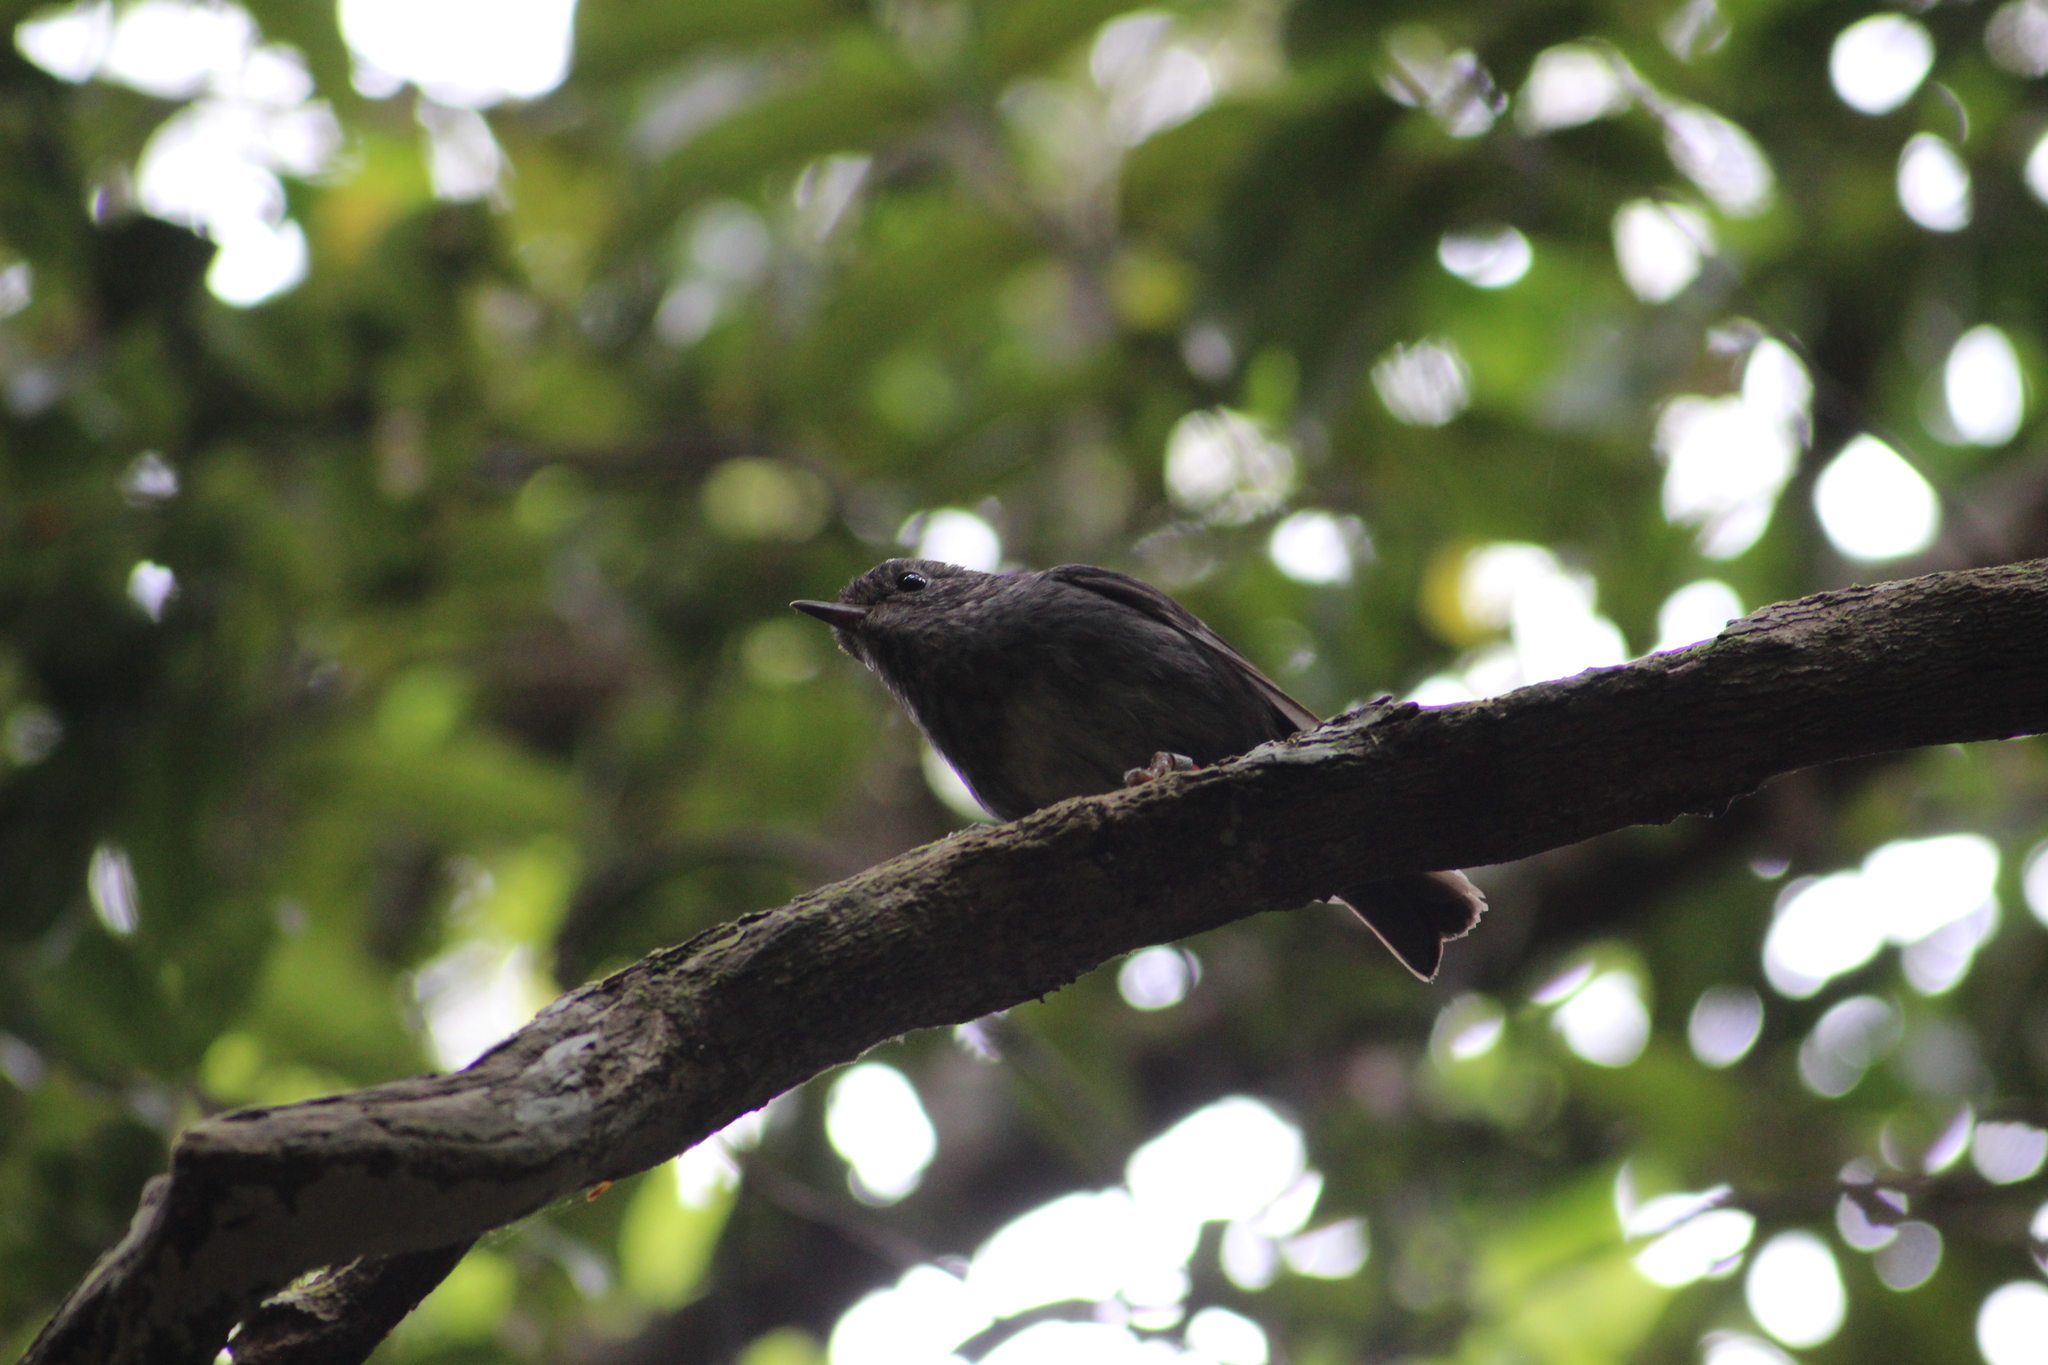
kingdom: Animalia
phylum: Chordata
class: Aves
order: Passeriformes
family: Petroicidae
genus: Petroica
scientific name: Petroica australis
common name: New zealand robin
